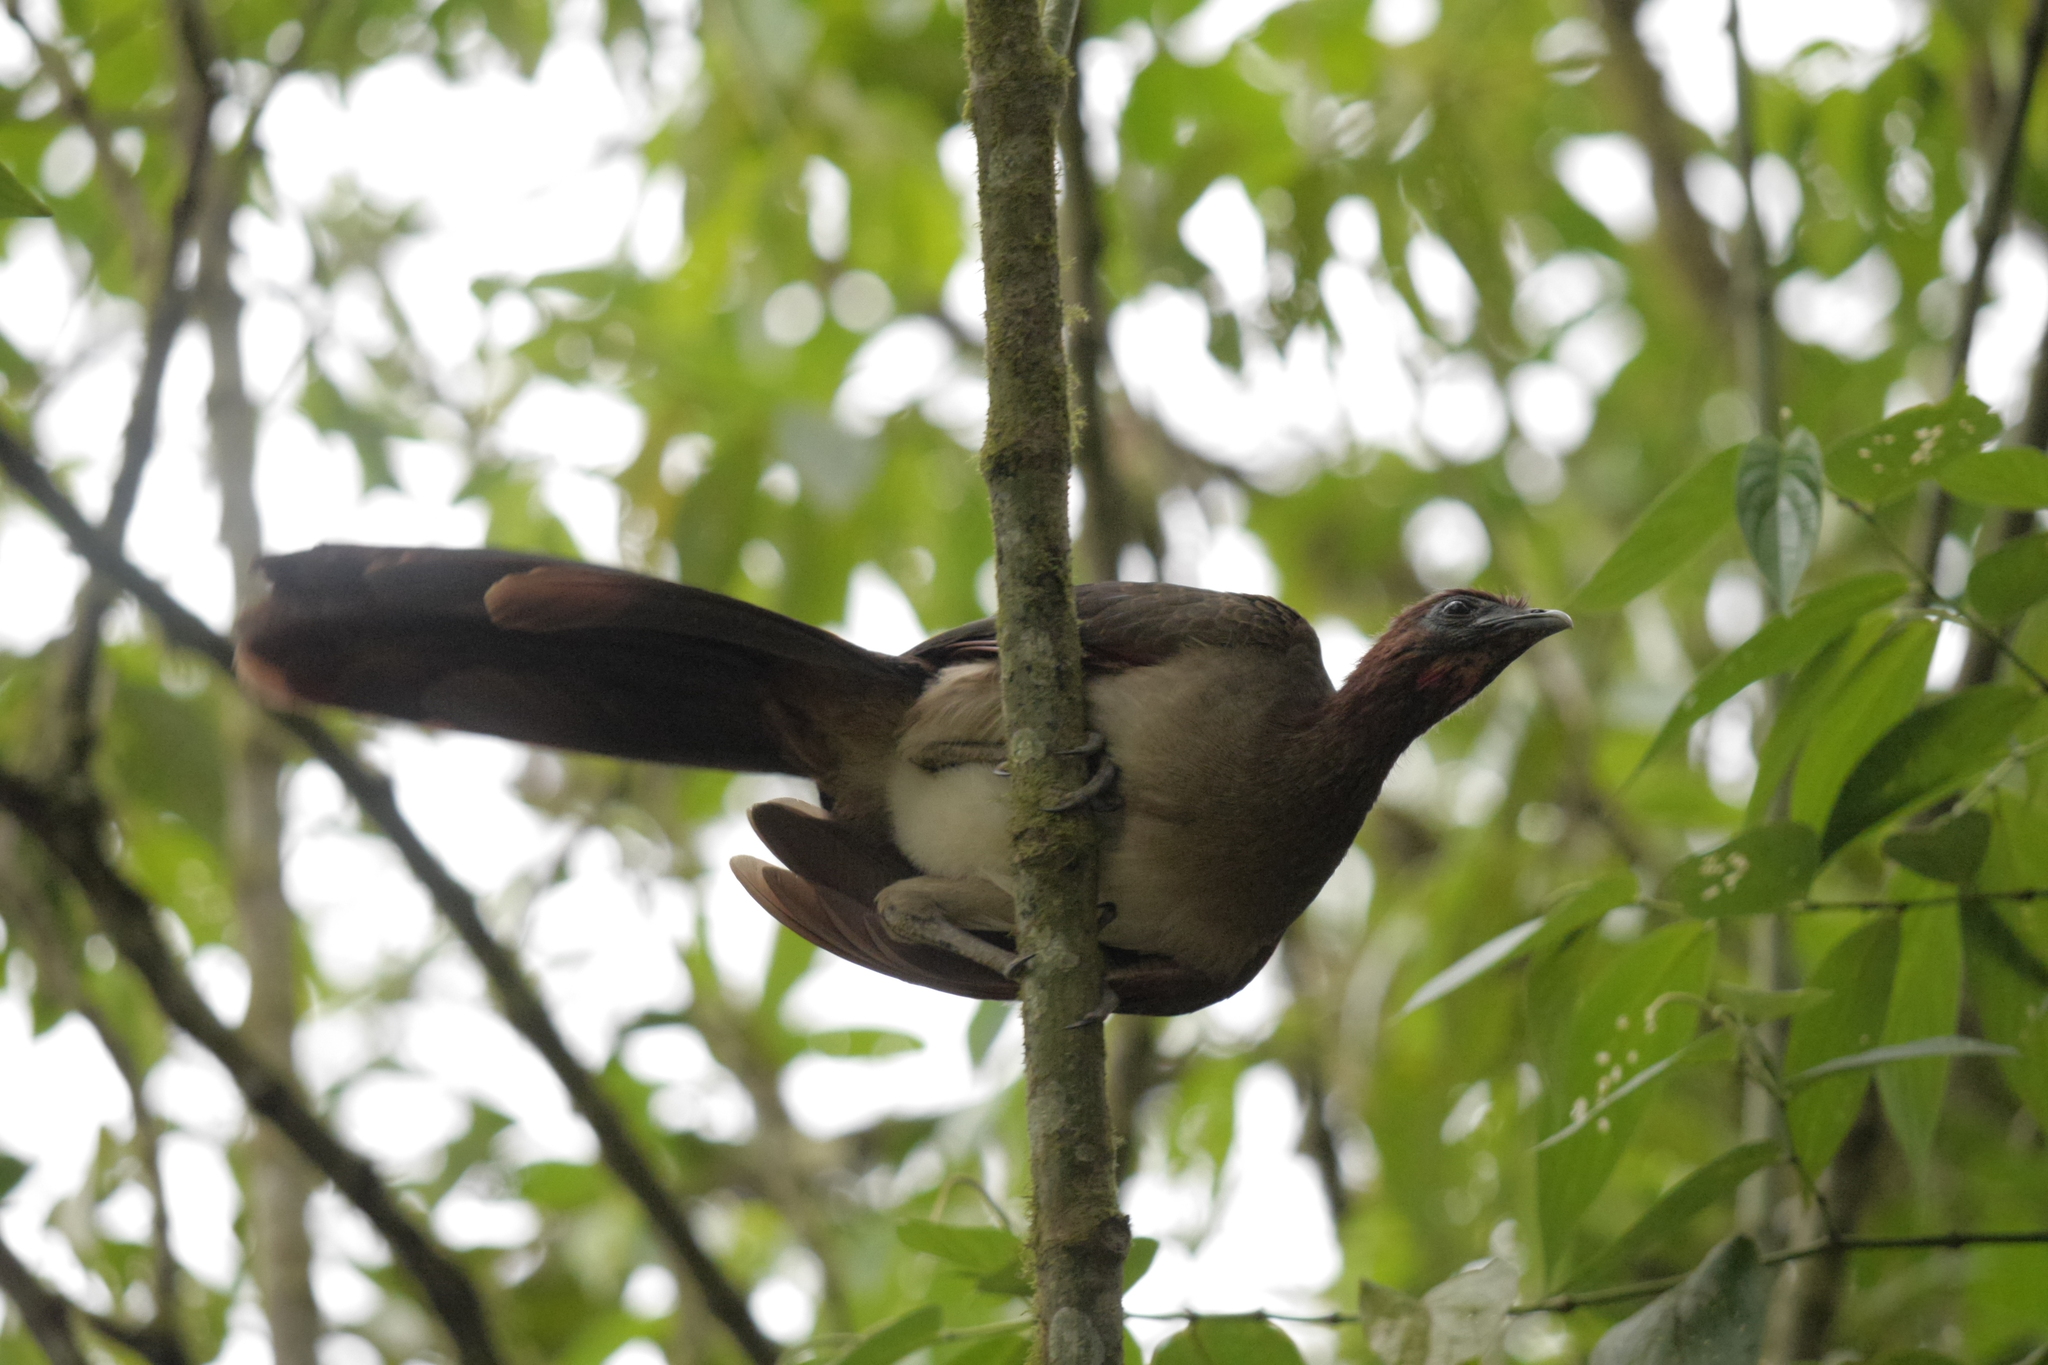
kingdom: Animalia
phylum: Chordata
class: Aves
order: Galliformes
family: Cracidae
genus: Ortalis
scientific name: Ortalis erythroptera
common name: Rufous-headed chachalaca
